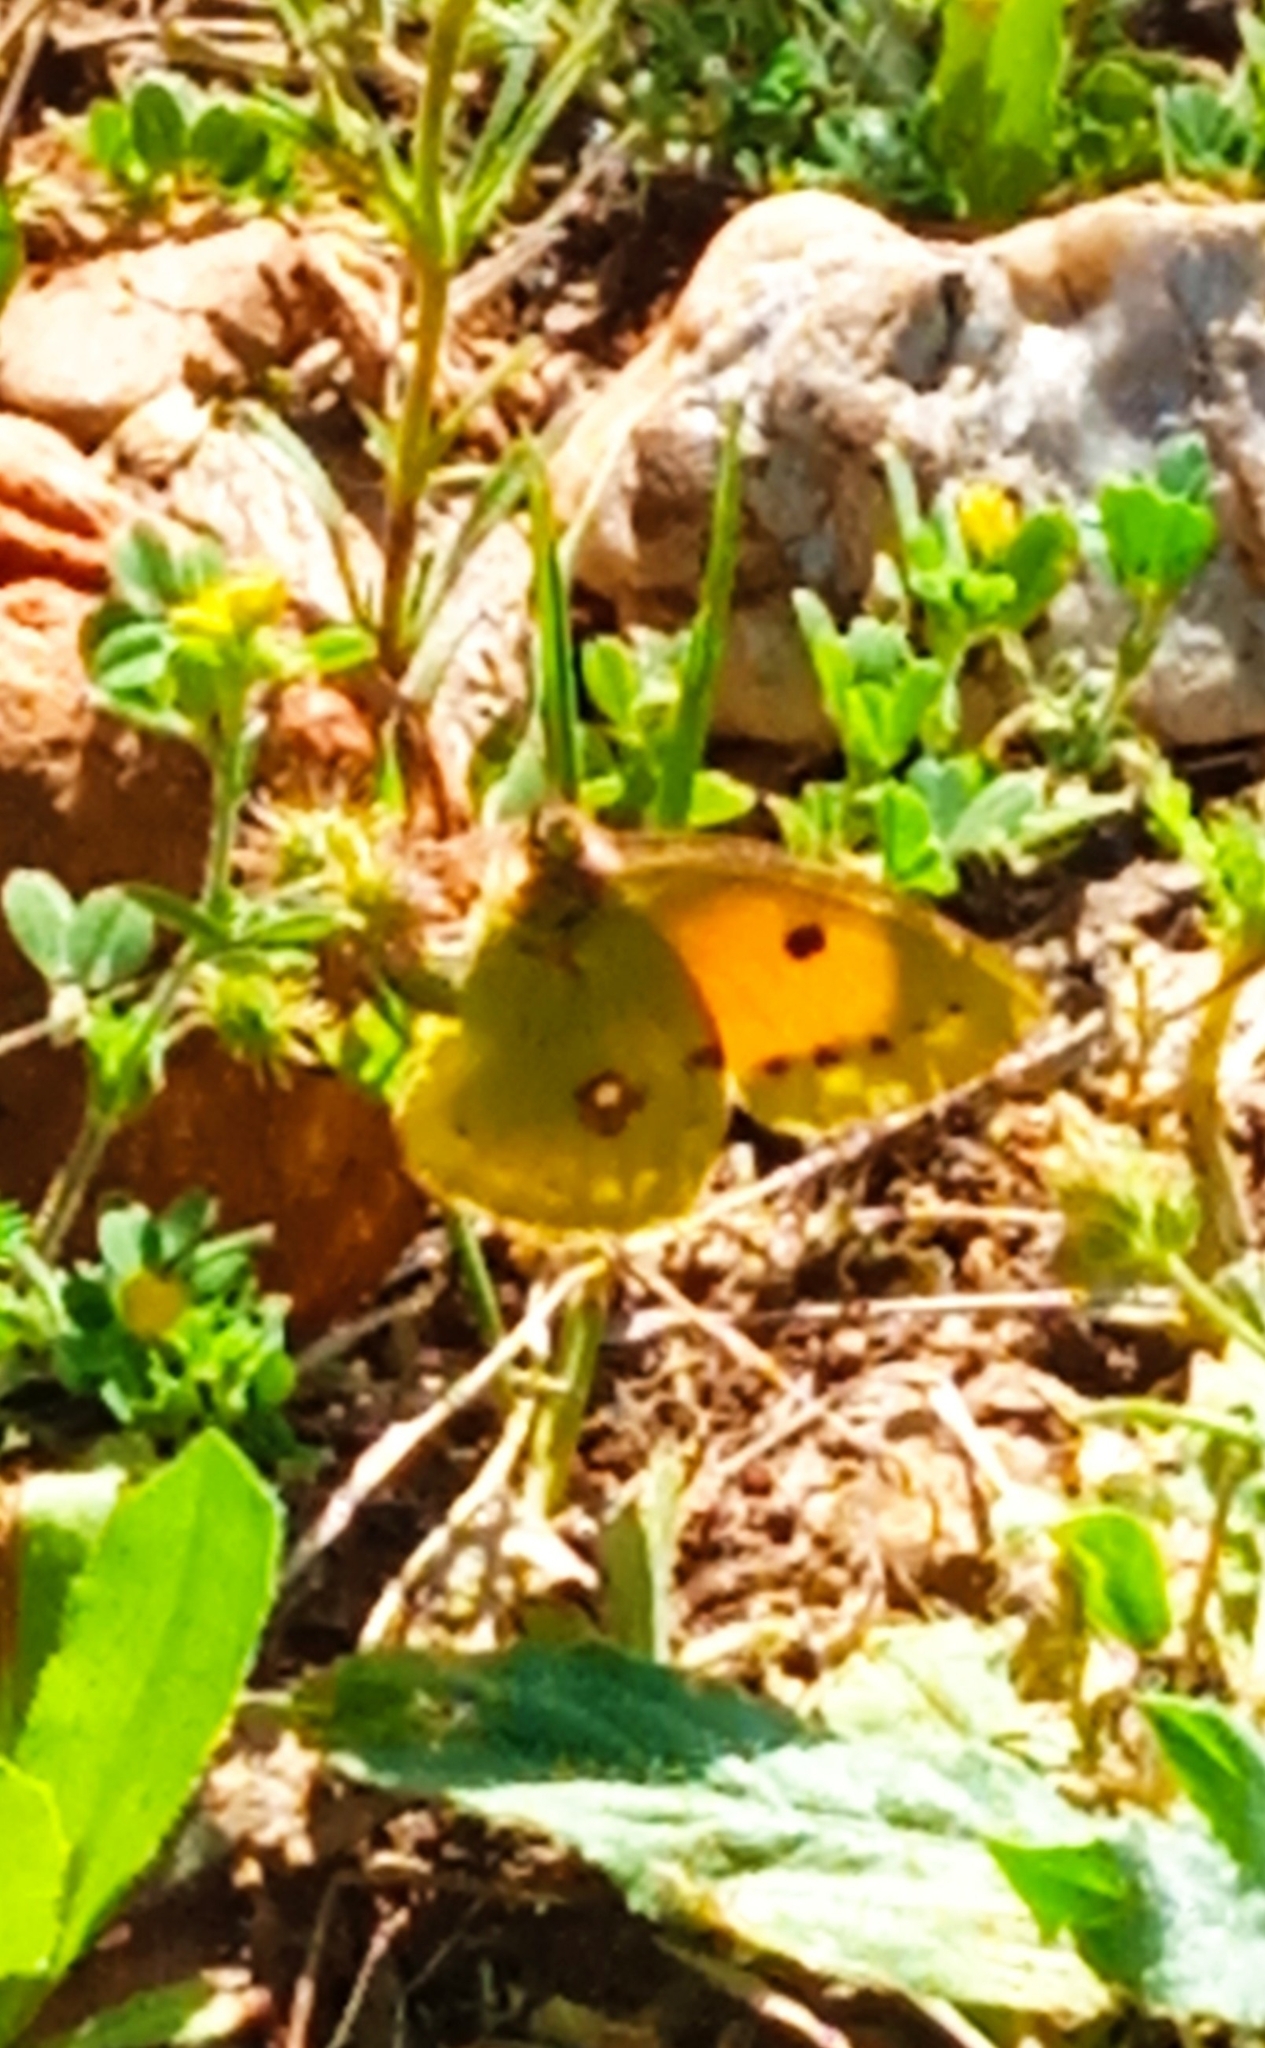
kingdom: Animalia
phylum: Arthropoda
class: Insecta
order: Lepidoptera
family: Pieridae
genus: Colias
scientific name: Colias croceus
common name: Clouded yellow
